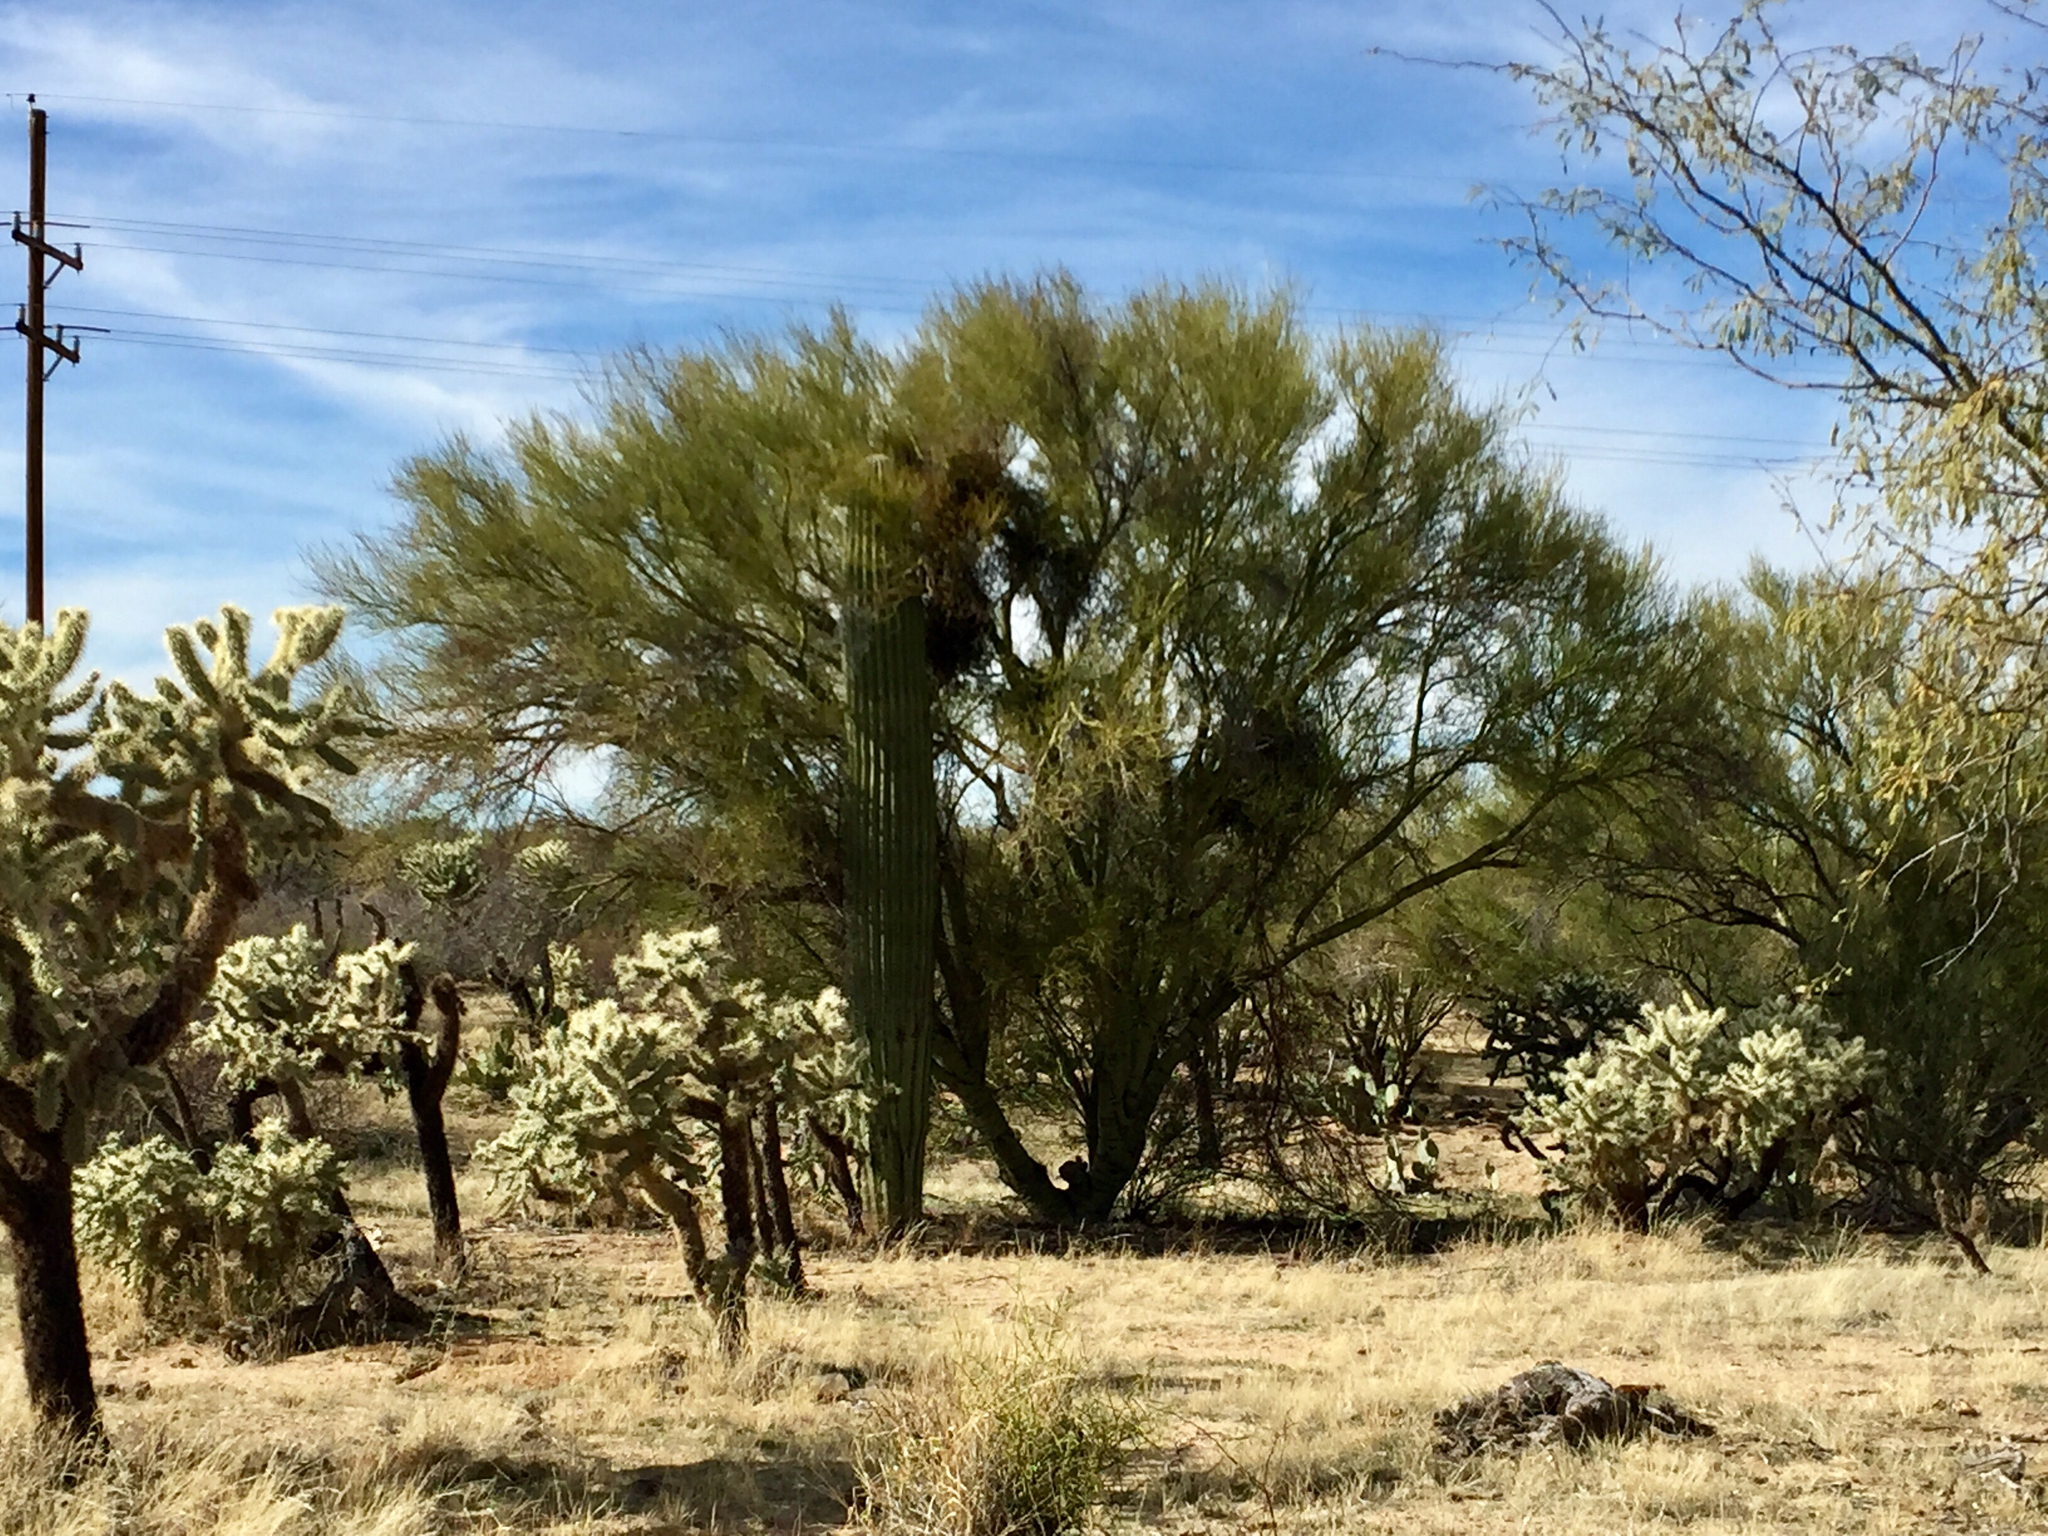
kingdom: Plantae
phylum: Tracheophyta
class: Magnoliopsida
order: Fabales
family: Fabaceae
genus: Parkinsonia
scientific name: Parkinsonia microphylla
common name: Yellow paloverde
